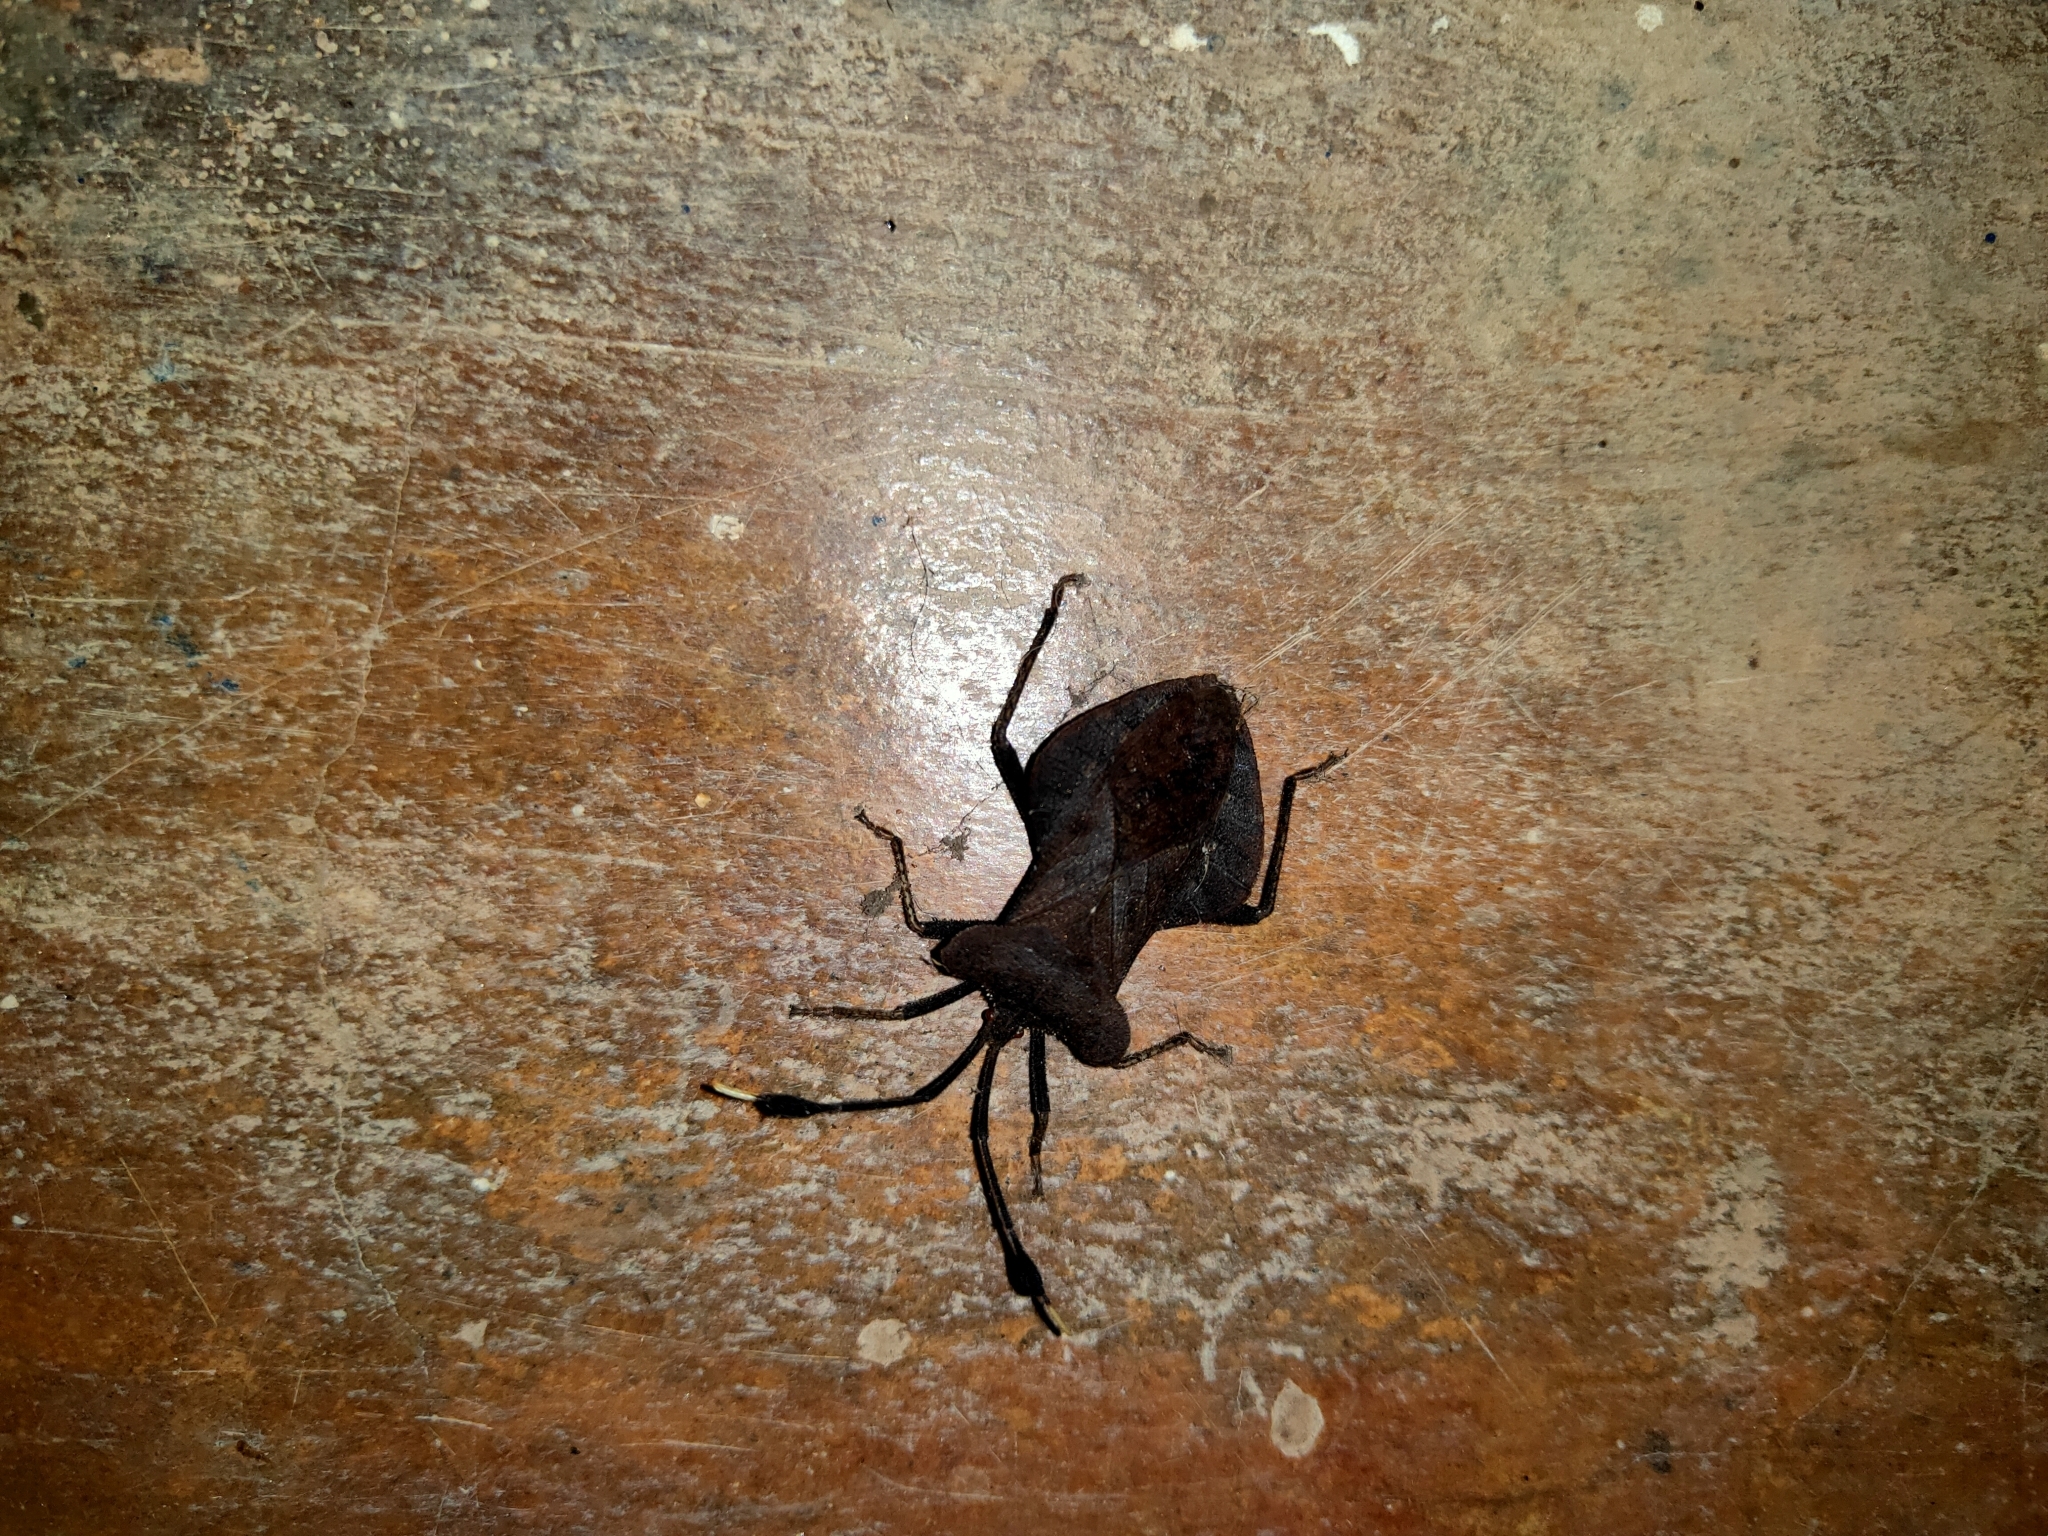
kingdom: Animalia
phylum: Arthropoda
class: Insecta
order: Hemiptera
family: Coreidae
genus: Dalader
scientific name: Dalader planiventris
